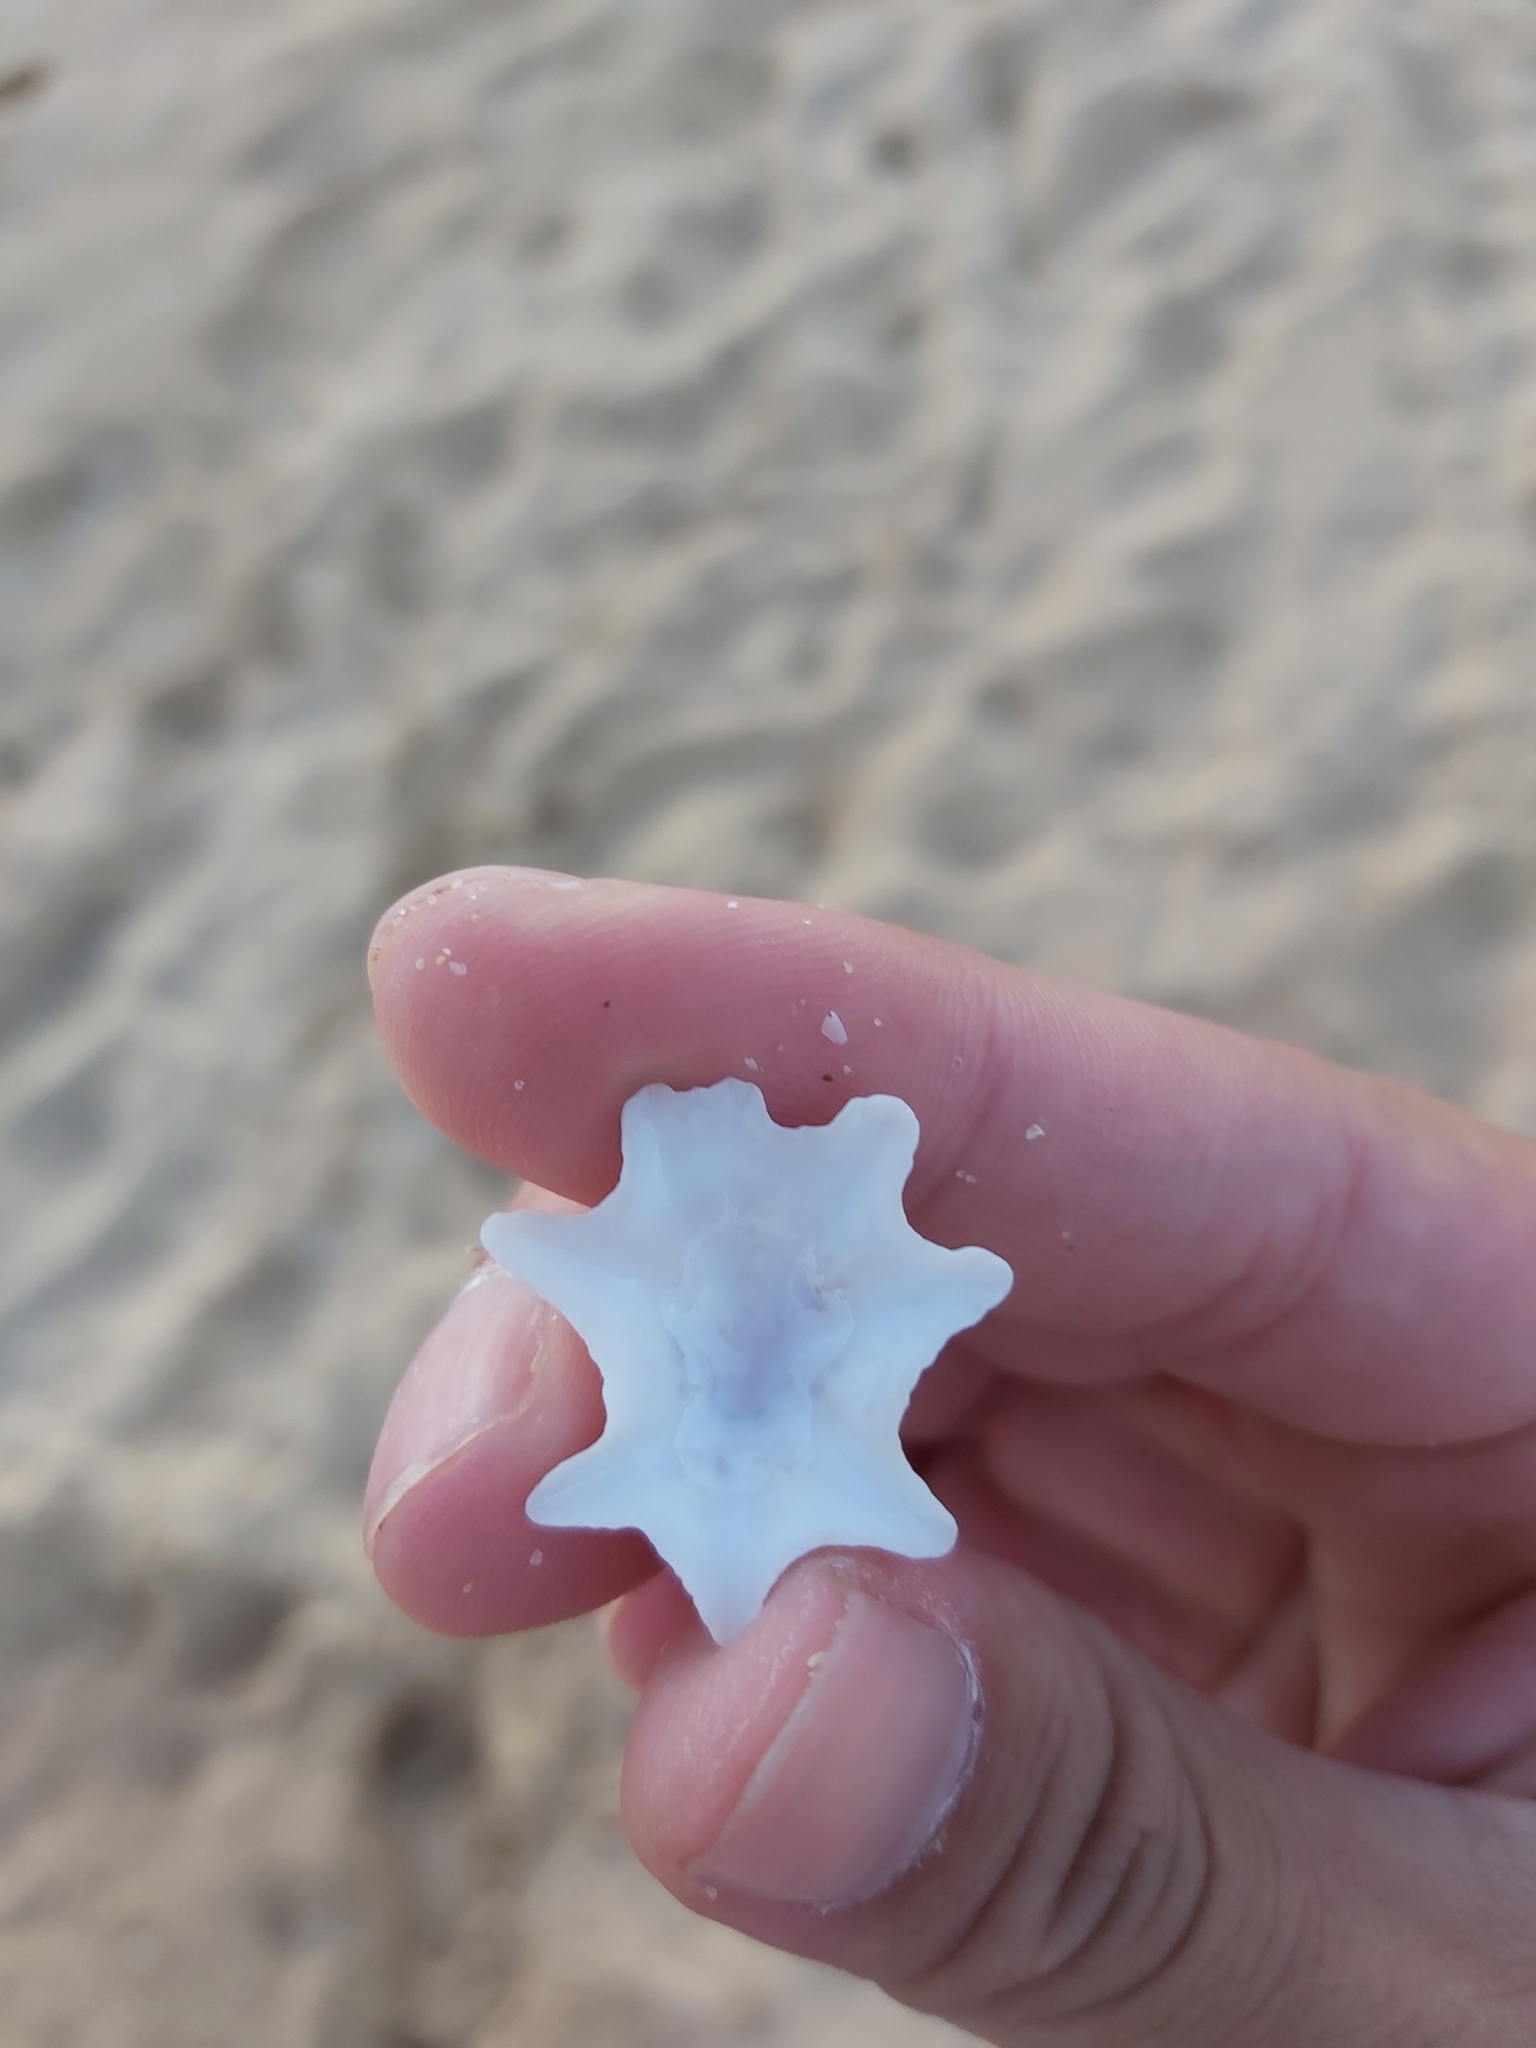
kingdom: Animalia
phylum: Mollusca
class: Gastropoda
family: Patellidae
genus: Scutellastra
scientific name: Scutellastra chapmani
